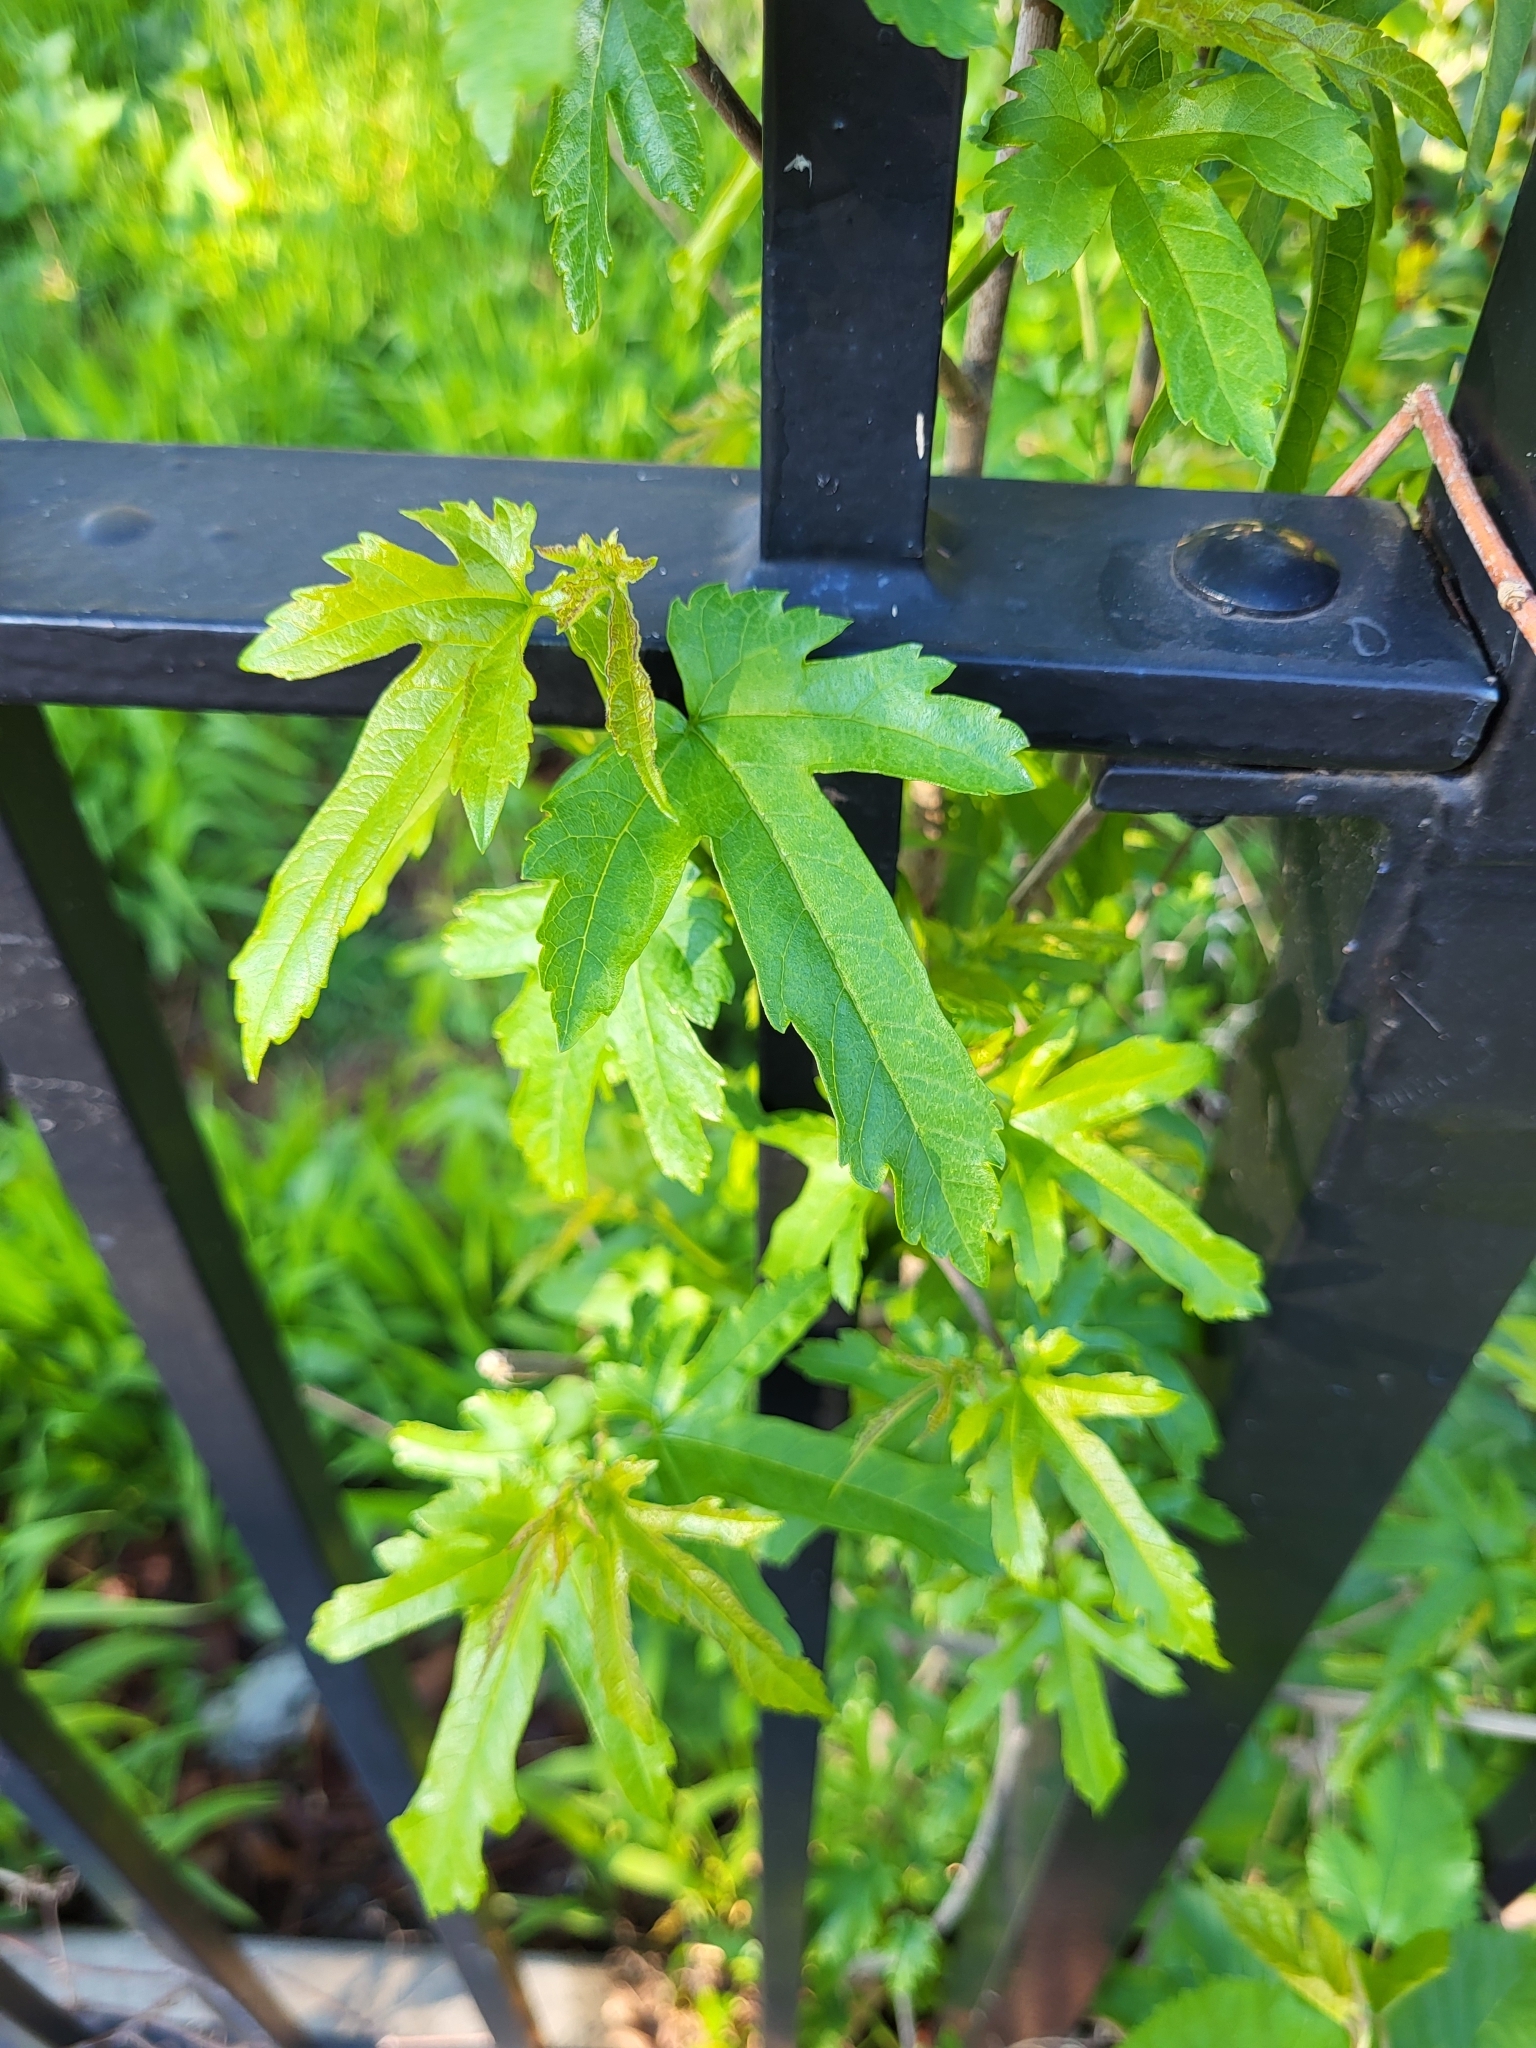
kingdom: Plantae
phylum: Tracheophyta
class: Magnoliopsida
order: Rosales
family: Moraceae
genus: Morus
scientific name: Morus indica
